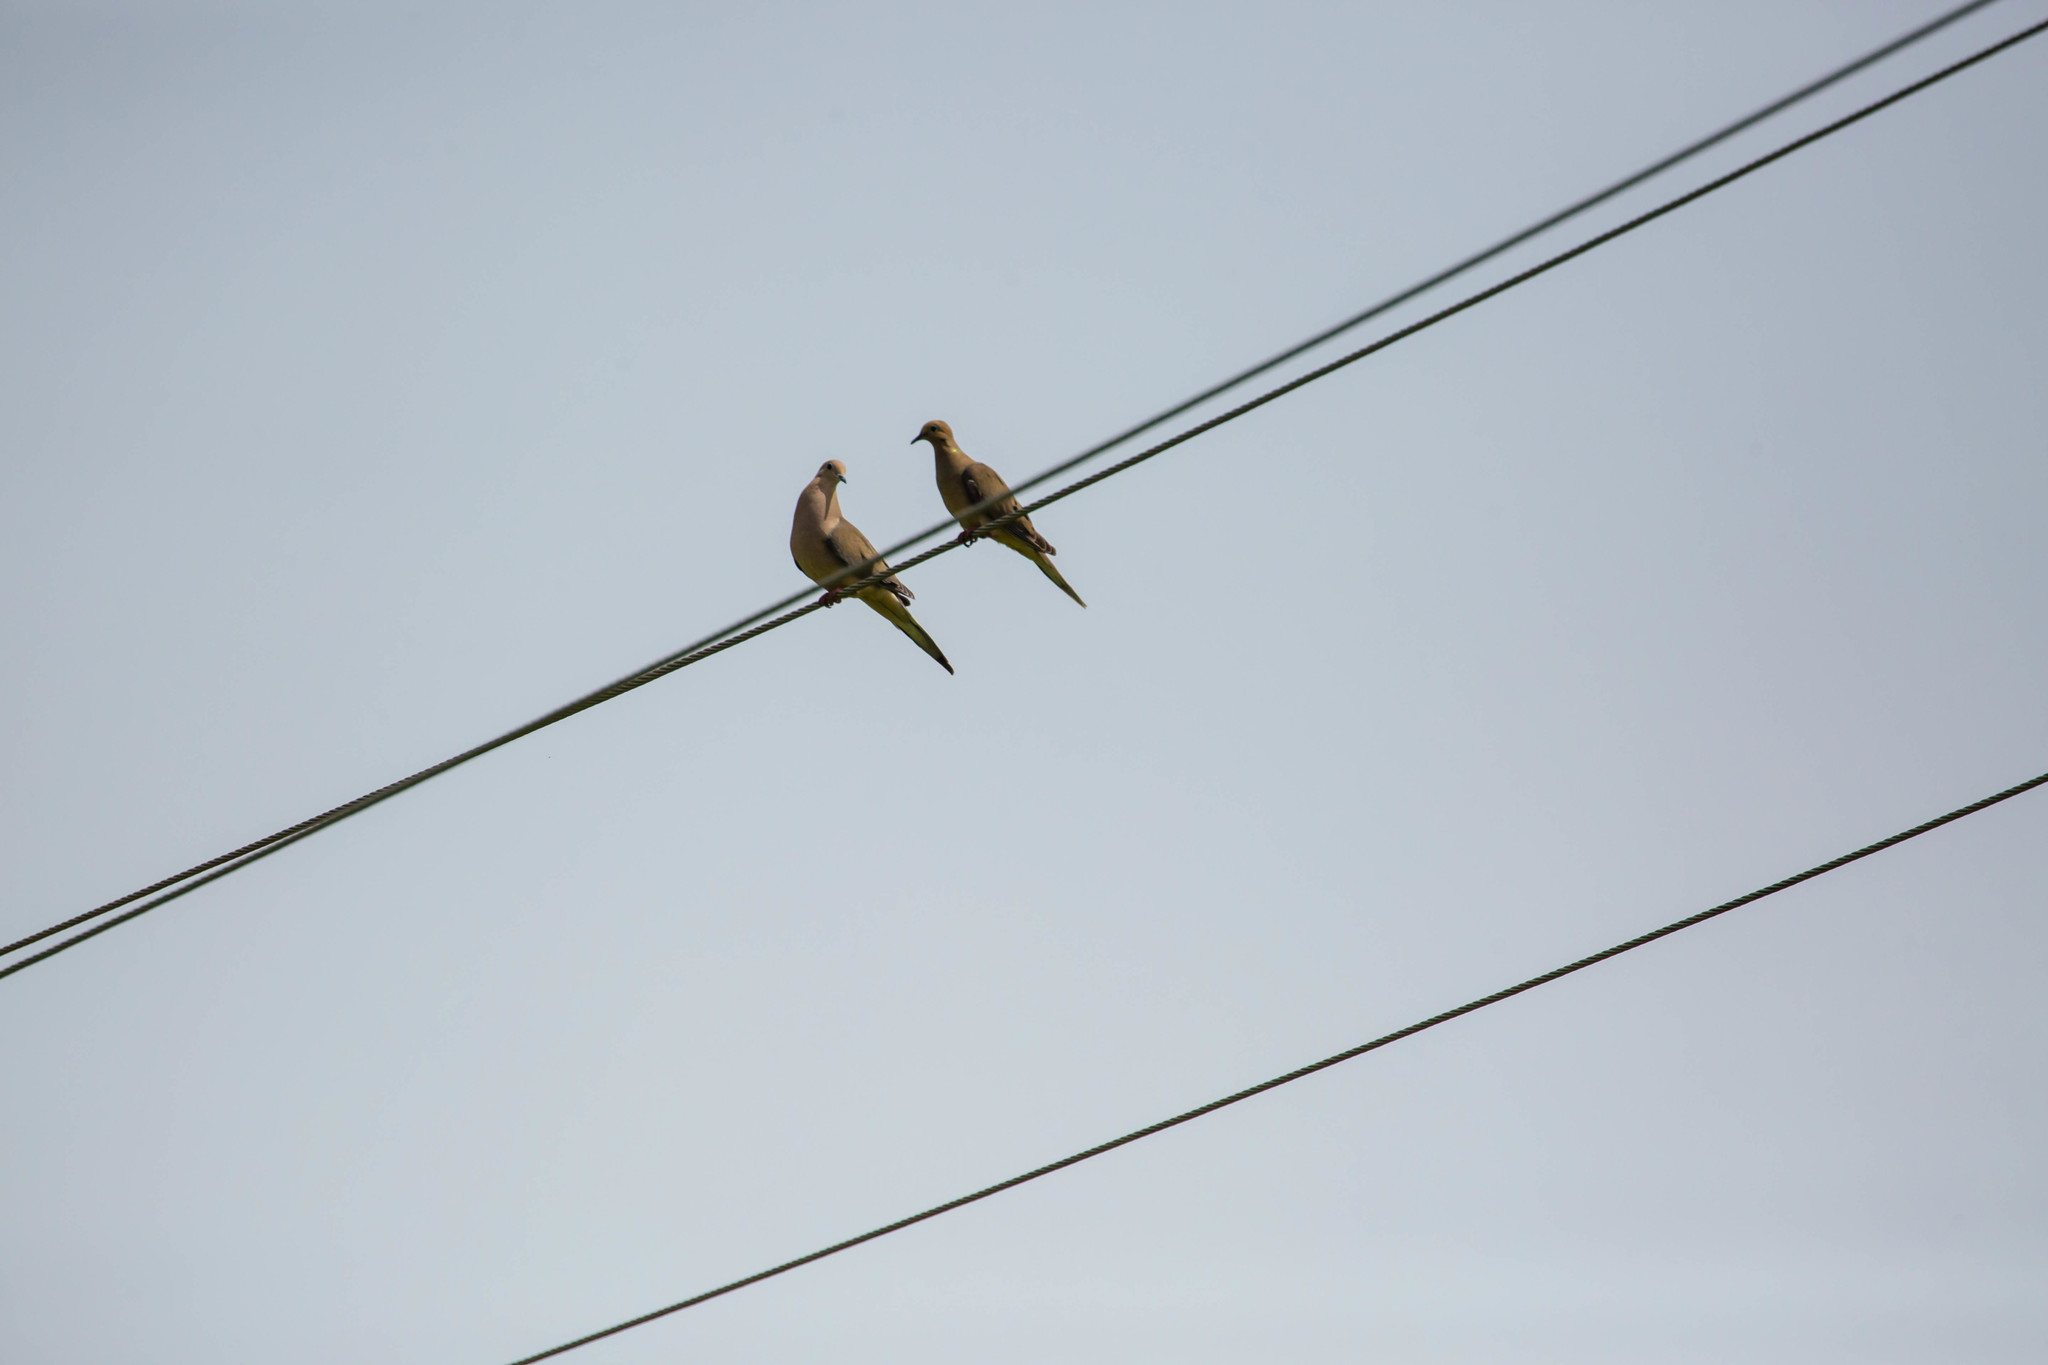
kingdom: Animalia
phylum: Chordata
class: Aves
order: Columbiformes
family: Columbidae
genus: Zenaida
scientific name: Zenaida macroura
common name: Mourning dove
